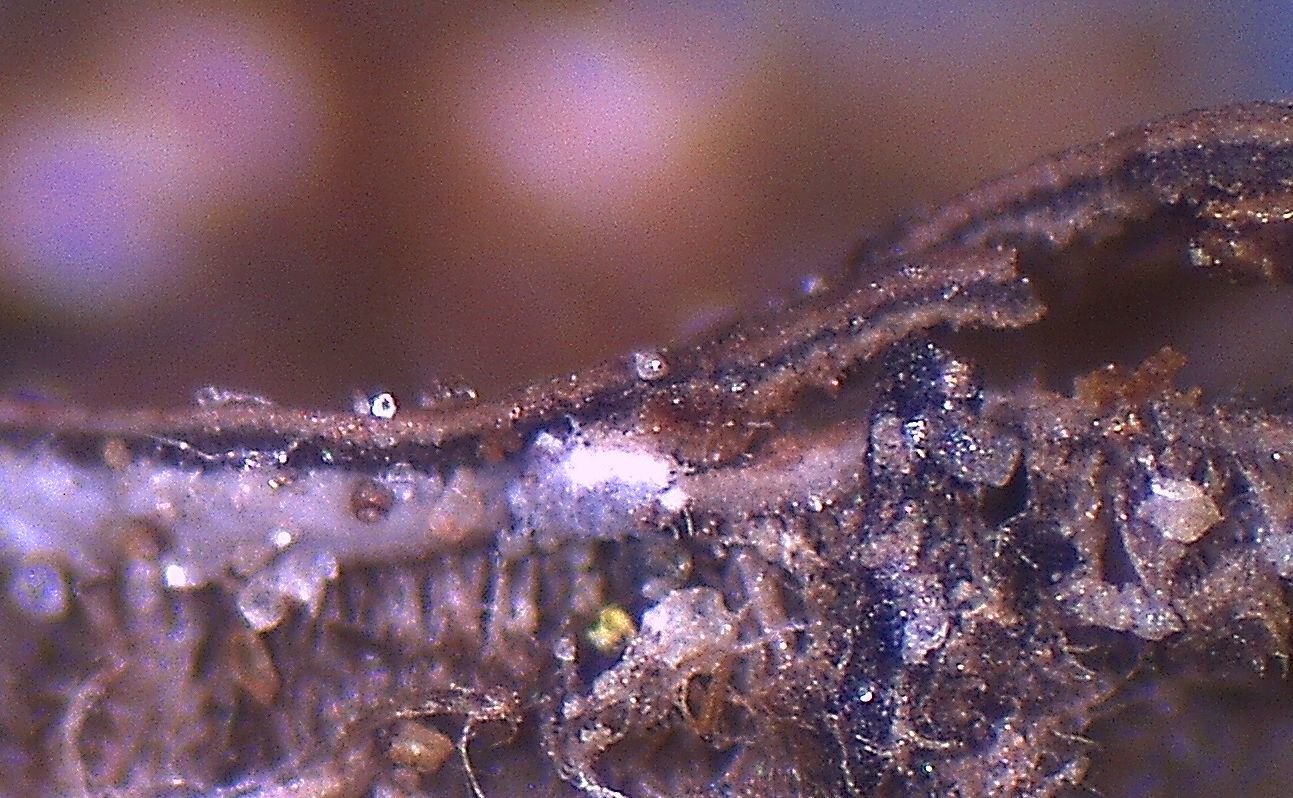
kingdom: Fungi
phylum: Ascomycota
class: Lecanoromycetes
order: Peltigerales
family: Lobariaceae
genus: Pseudocyphellaria
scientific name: Pseudocyphellaria fimbriatoides
